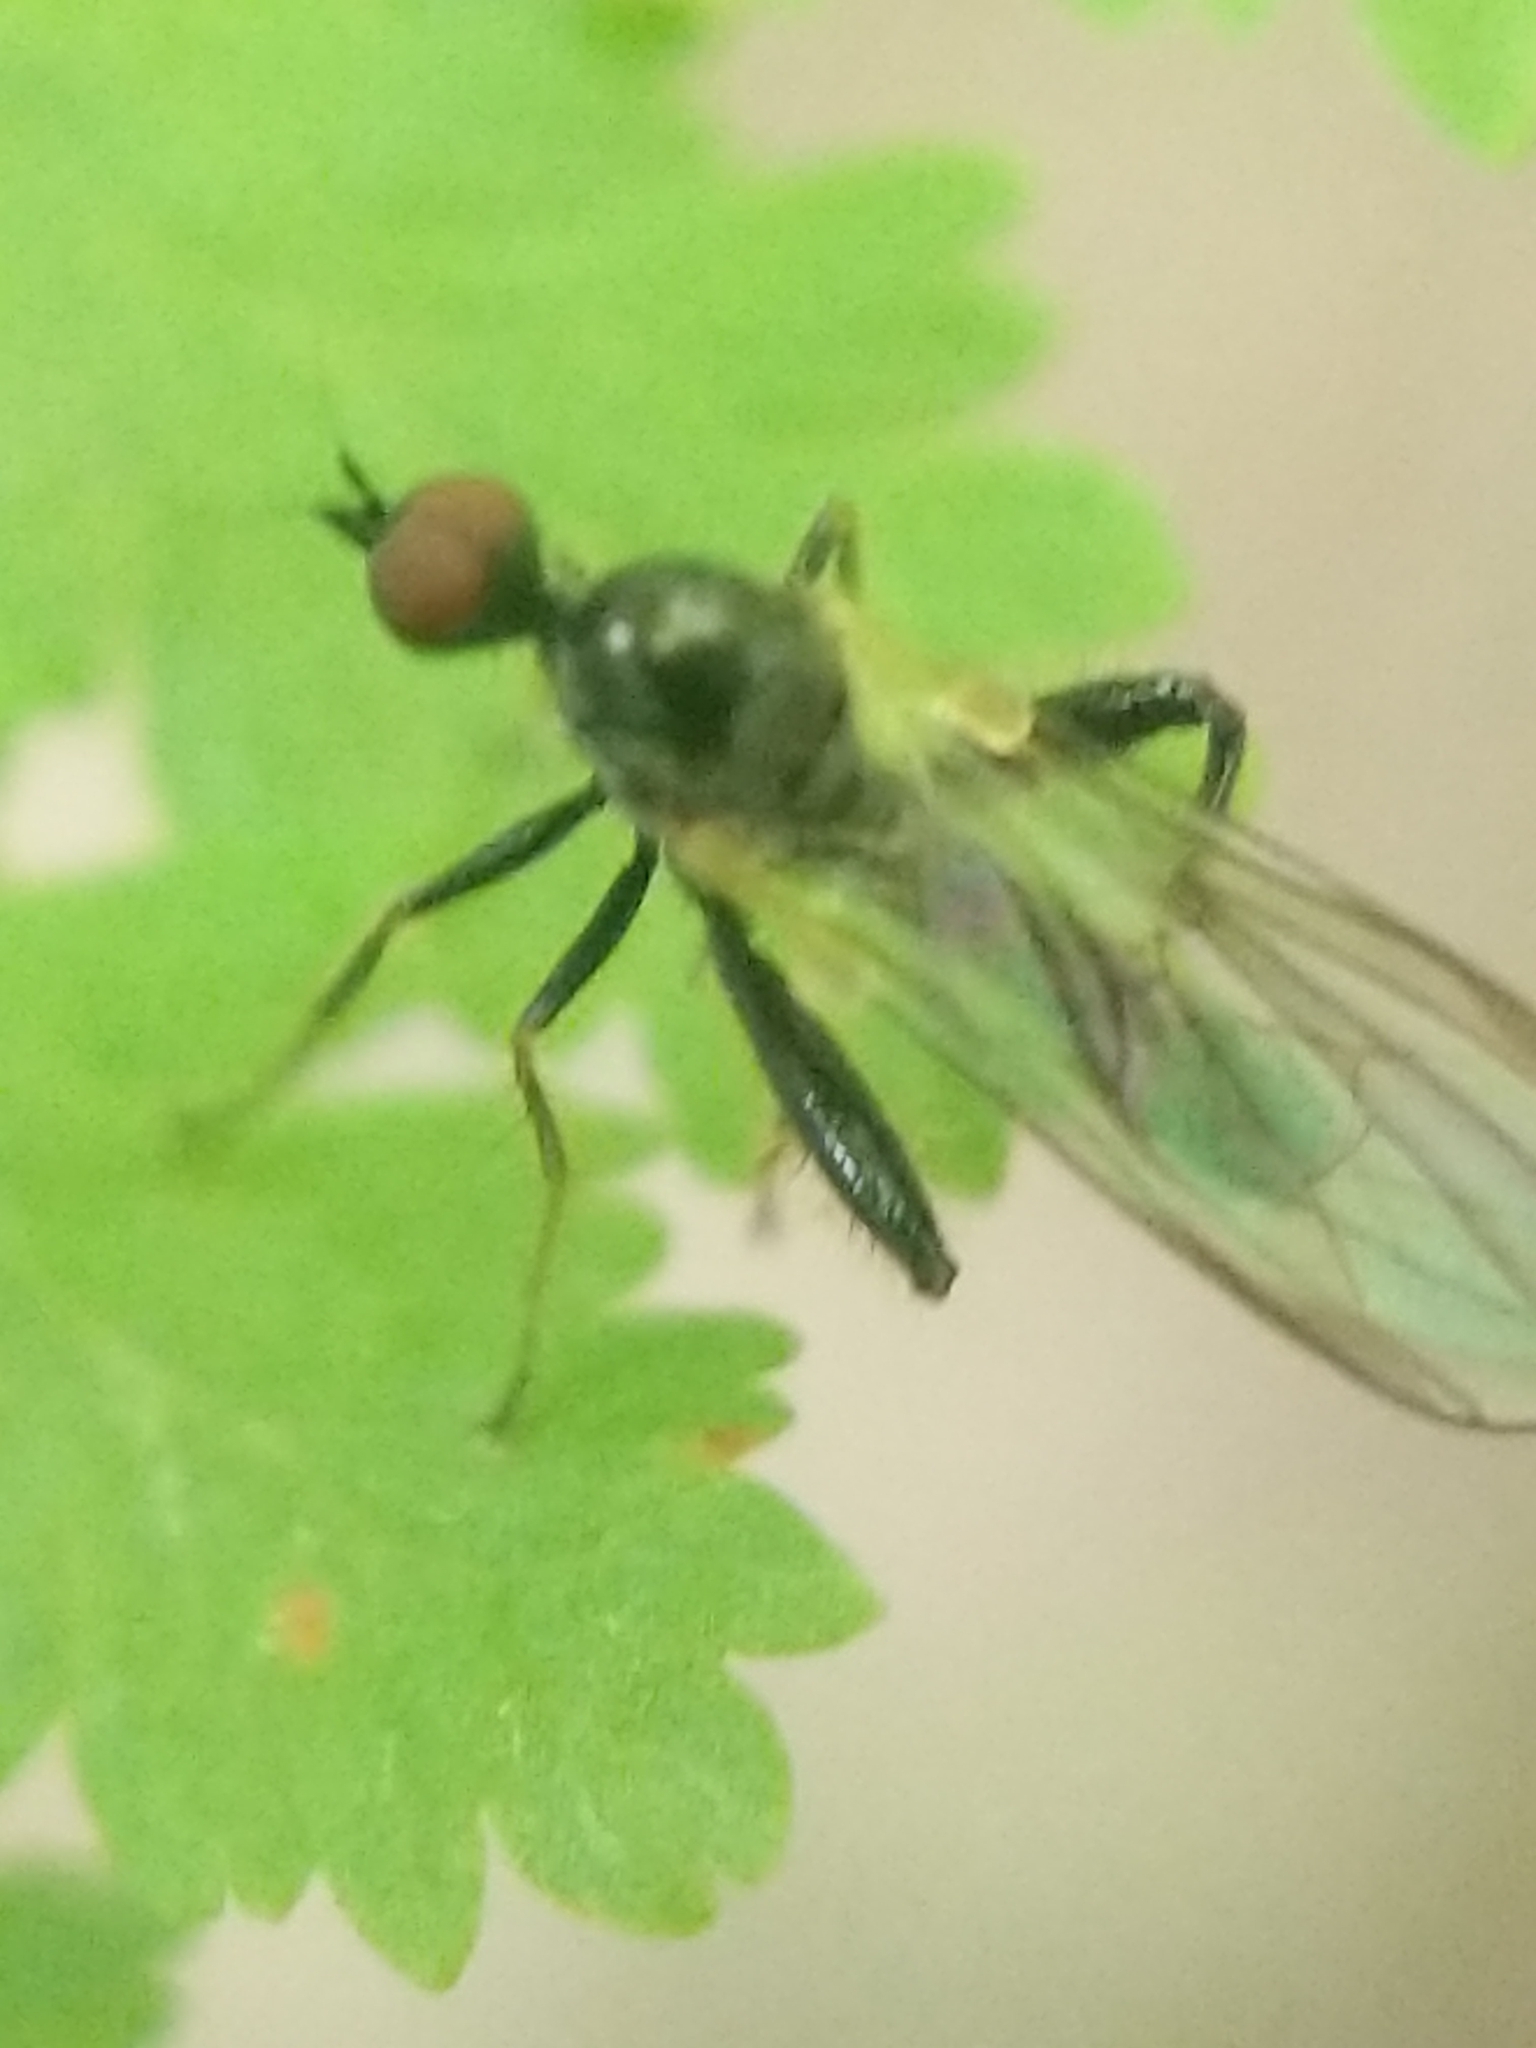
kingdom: Animalia
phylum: Arthropoda
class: Insecta
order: Diptera
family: Hybotidae
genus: Hybos
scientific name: Hybos reversus
